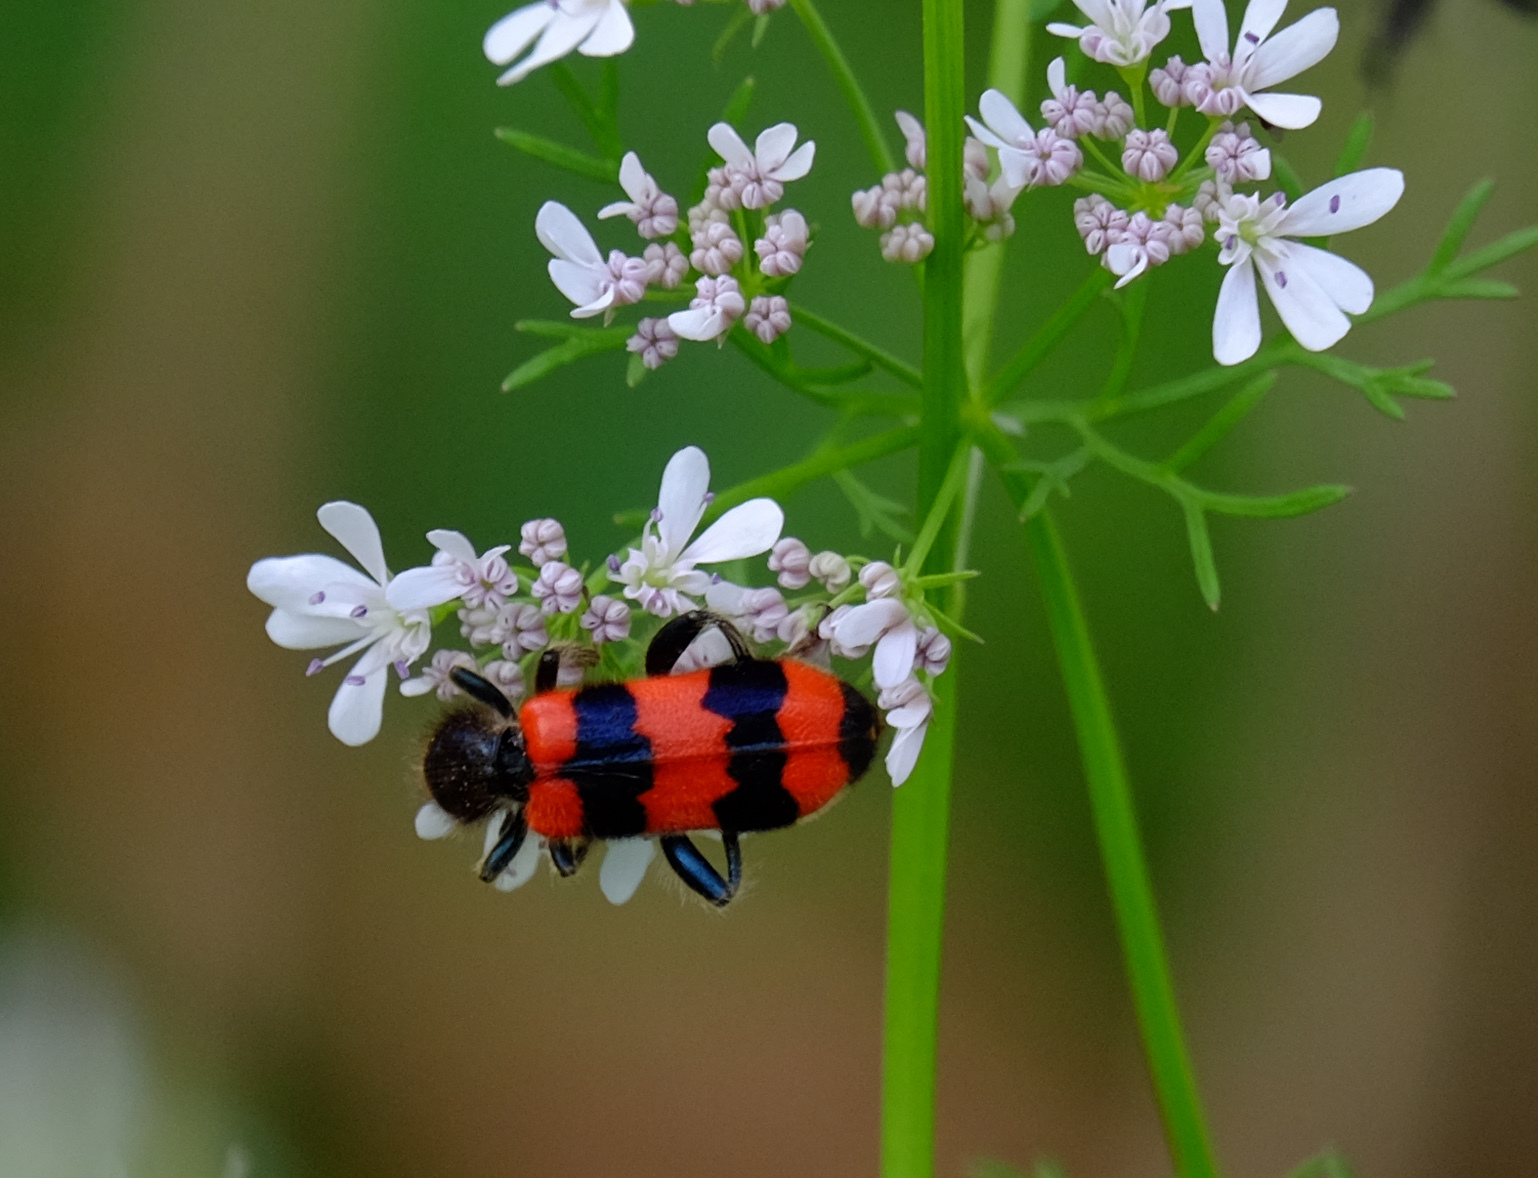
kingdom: Animalia
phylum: Arthropoda
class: Insecta
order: Coleoptera
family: Cleridae
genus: Trichodes
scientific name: Trichodes apiarius
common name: Bee-eating beetle
